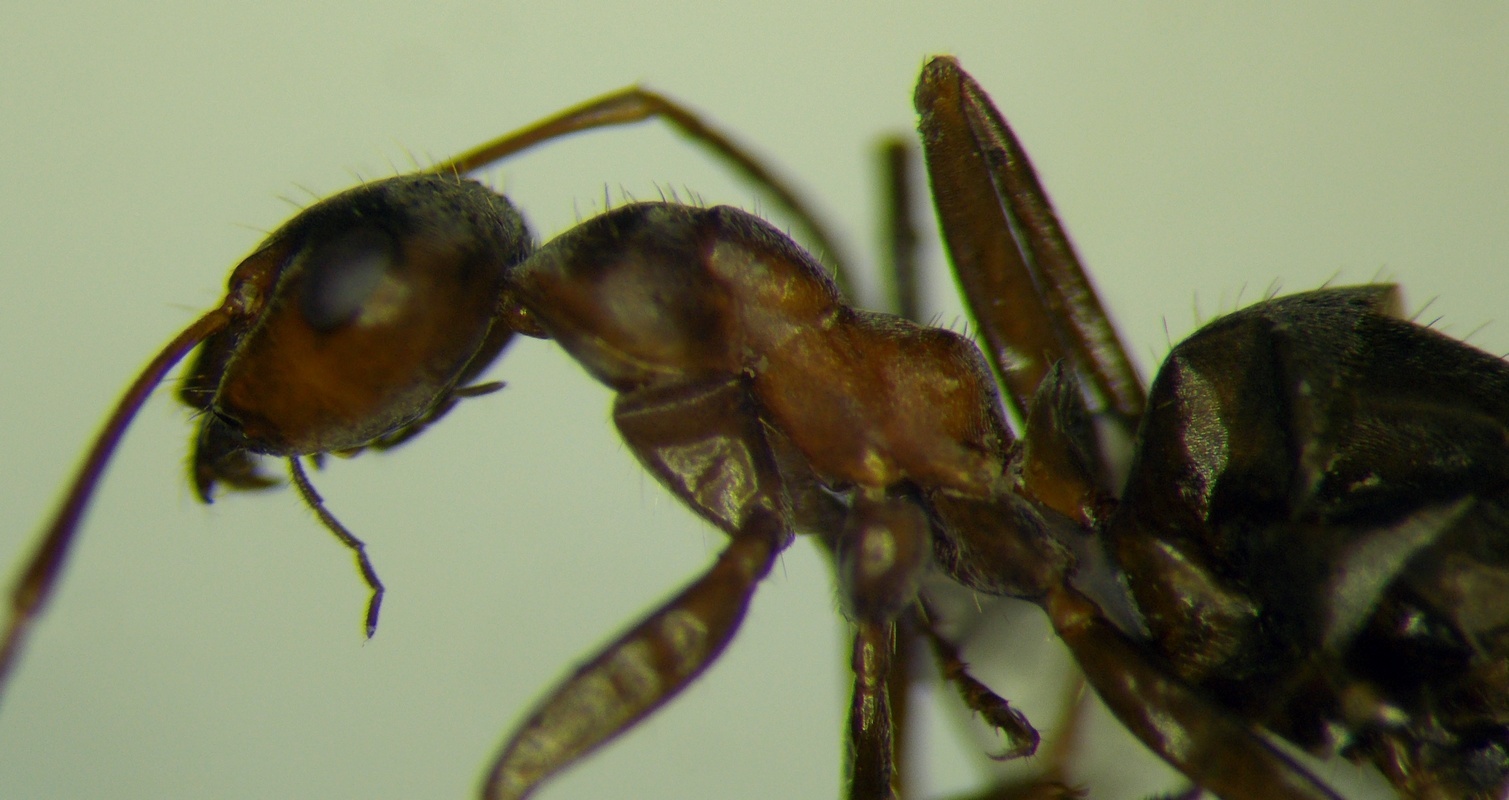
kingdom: Animalia
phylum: Arthropoda
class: Insecta
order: Hymenoptera
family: Formicidae
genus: Formica
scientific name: Formica subpilosa
